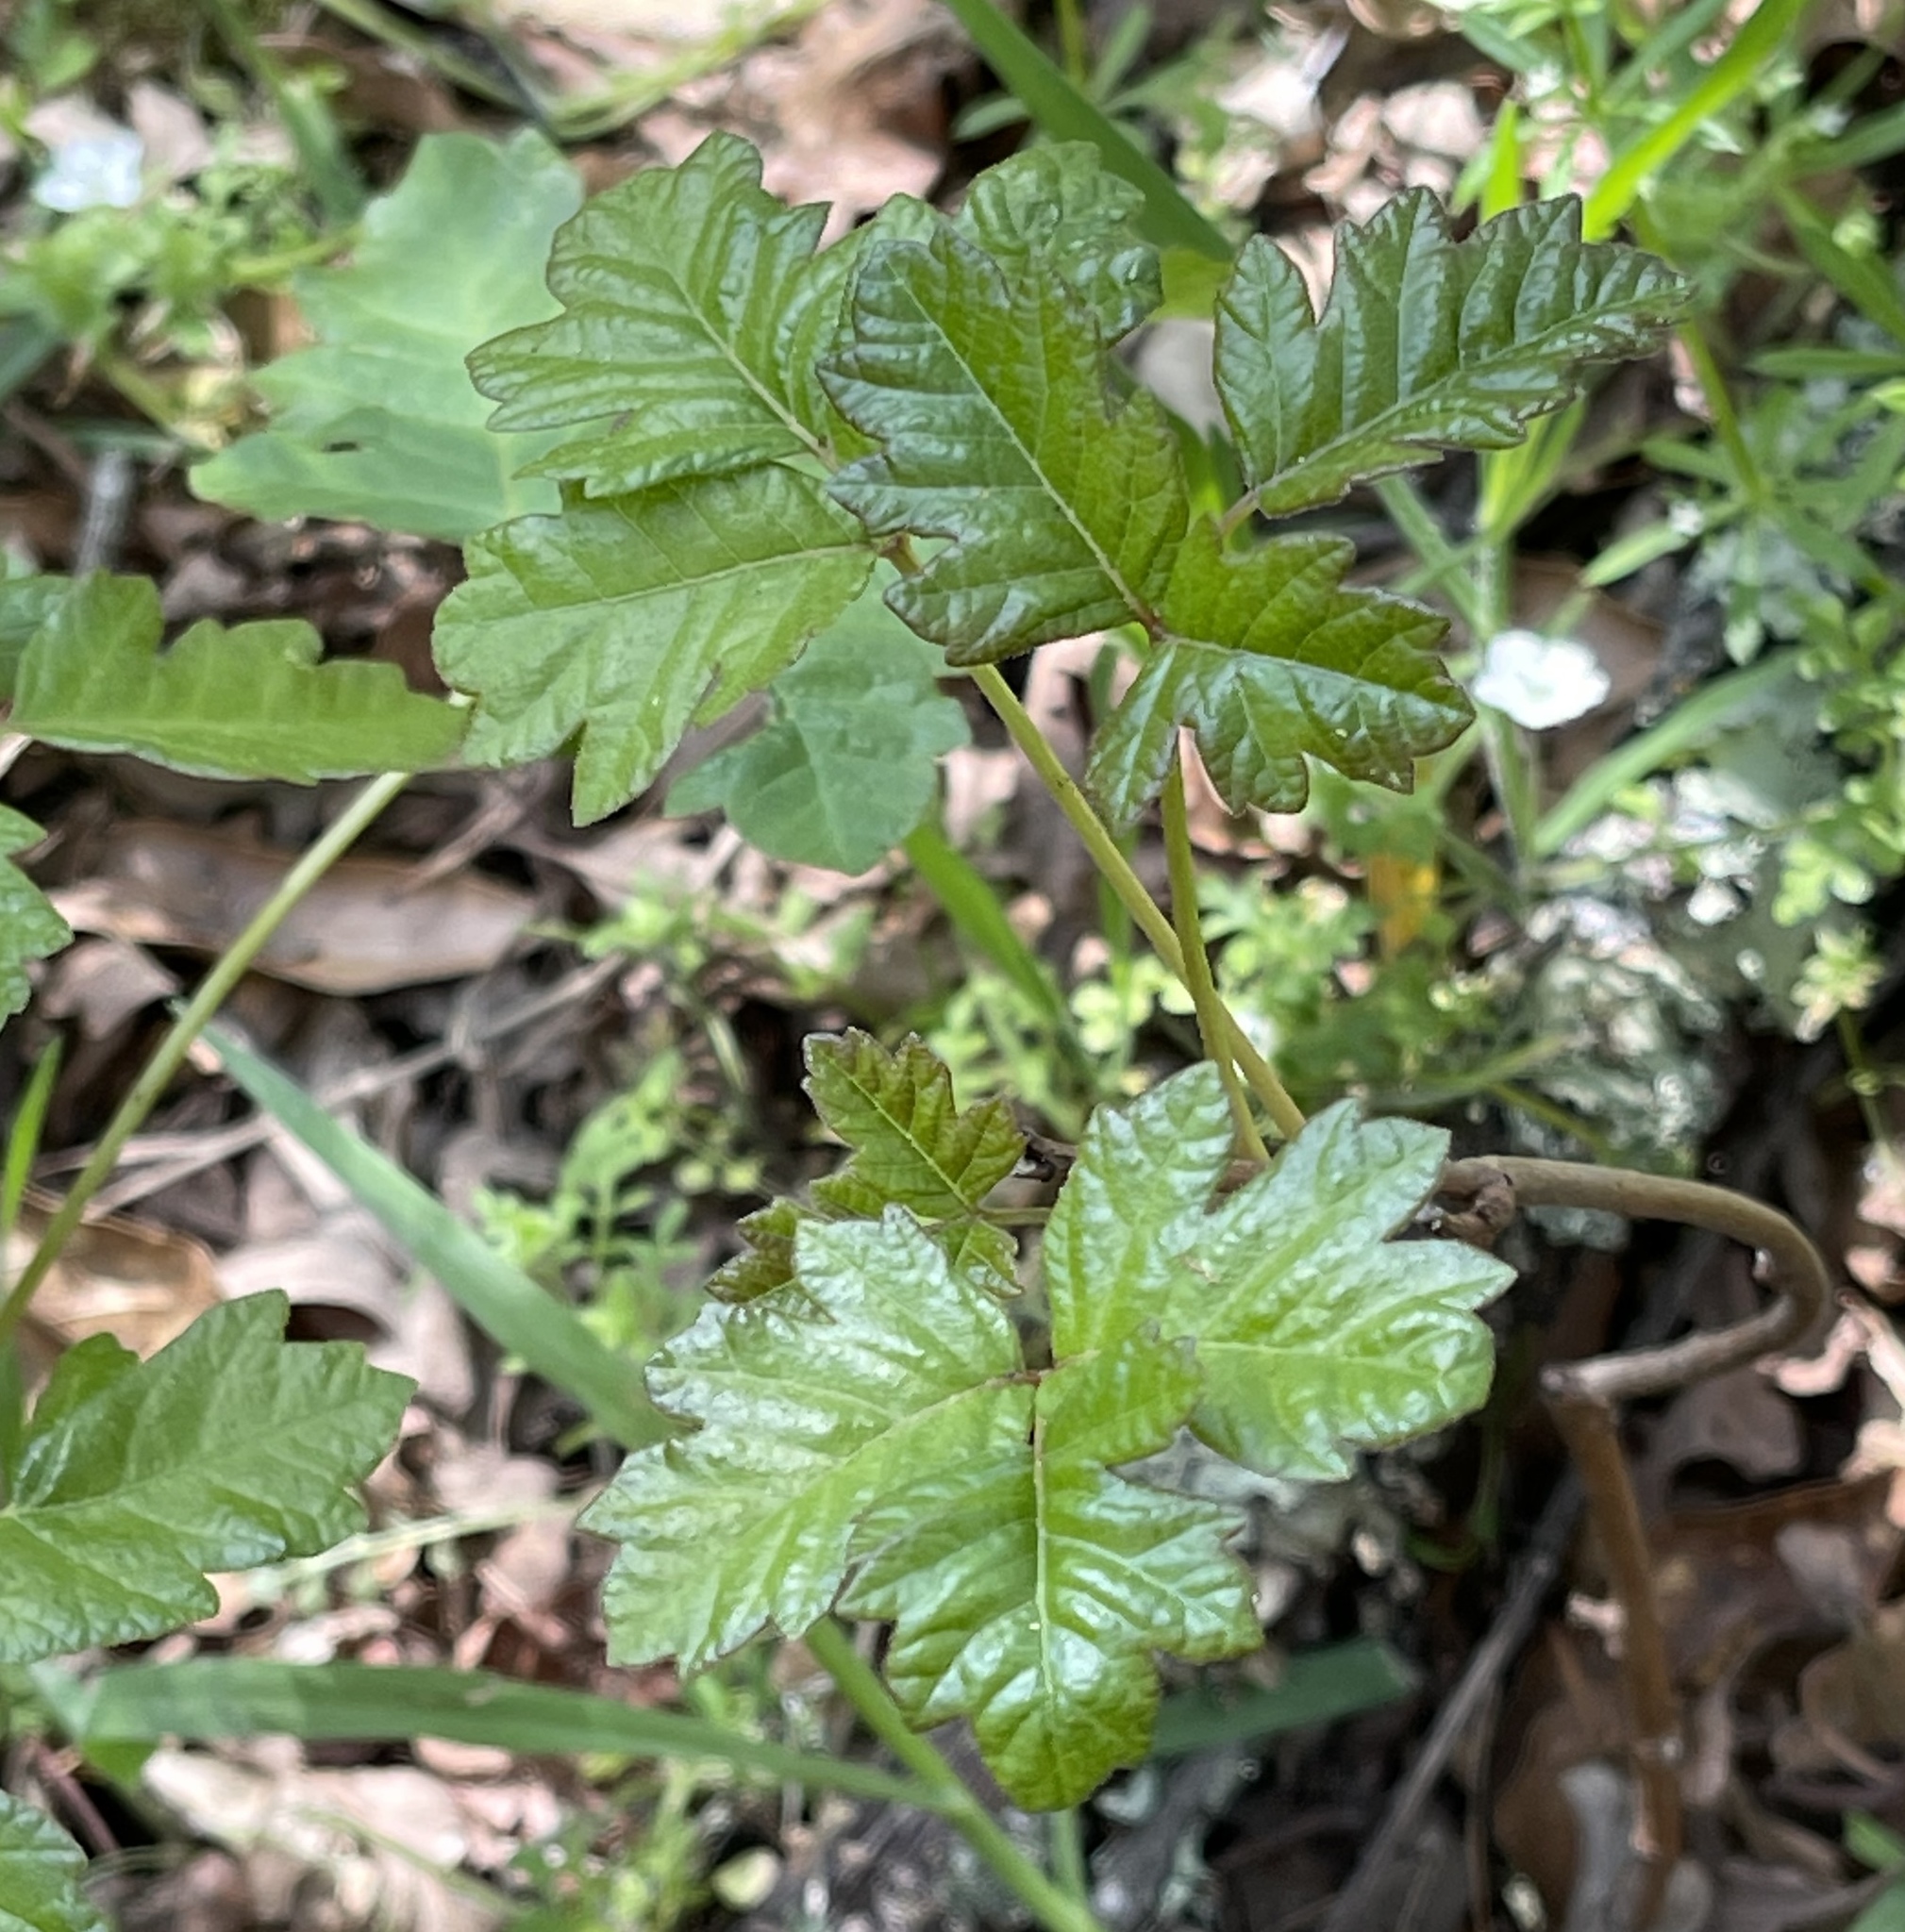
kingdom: Plantae
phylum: Tracheophyta
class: Magnoliopsida
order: Sapindales
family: Anacardiaceae
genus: Toxicodendron
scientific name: Toxicodendron diversilobum
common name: Pacific poison-oak
